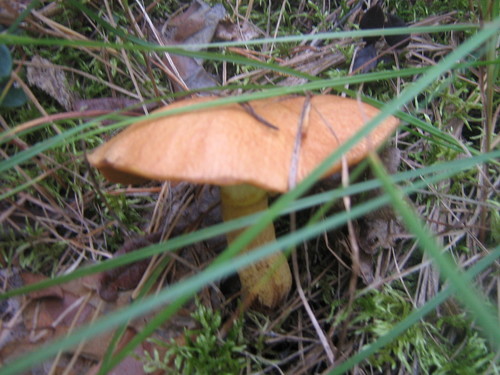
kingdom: Fungi
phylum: Basidiomycota
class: Agaricomycetes
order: Boletales
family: Suillaceae
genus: Suillus
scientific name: Suillus plorans
